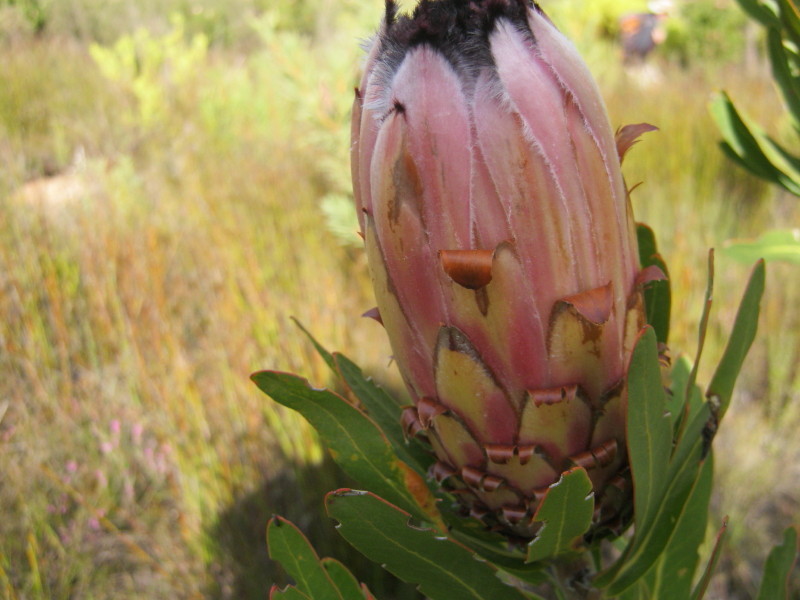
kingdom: Plantae
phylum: Tracheophyta
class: Magnoliopsida
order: Proteales
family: Proteaceae
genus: Protea
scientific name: Protea neriifolia
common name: Blue sugarbush
